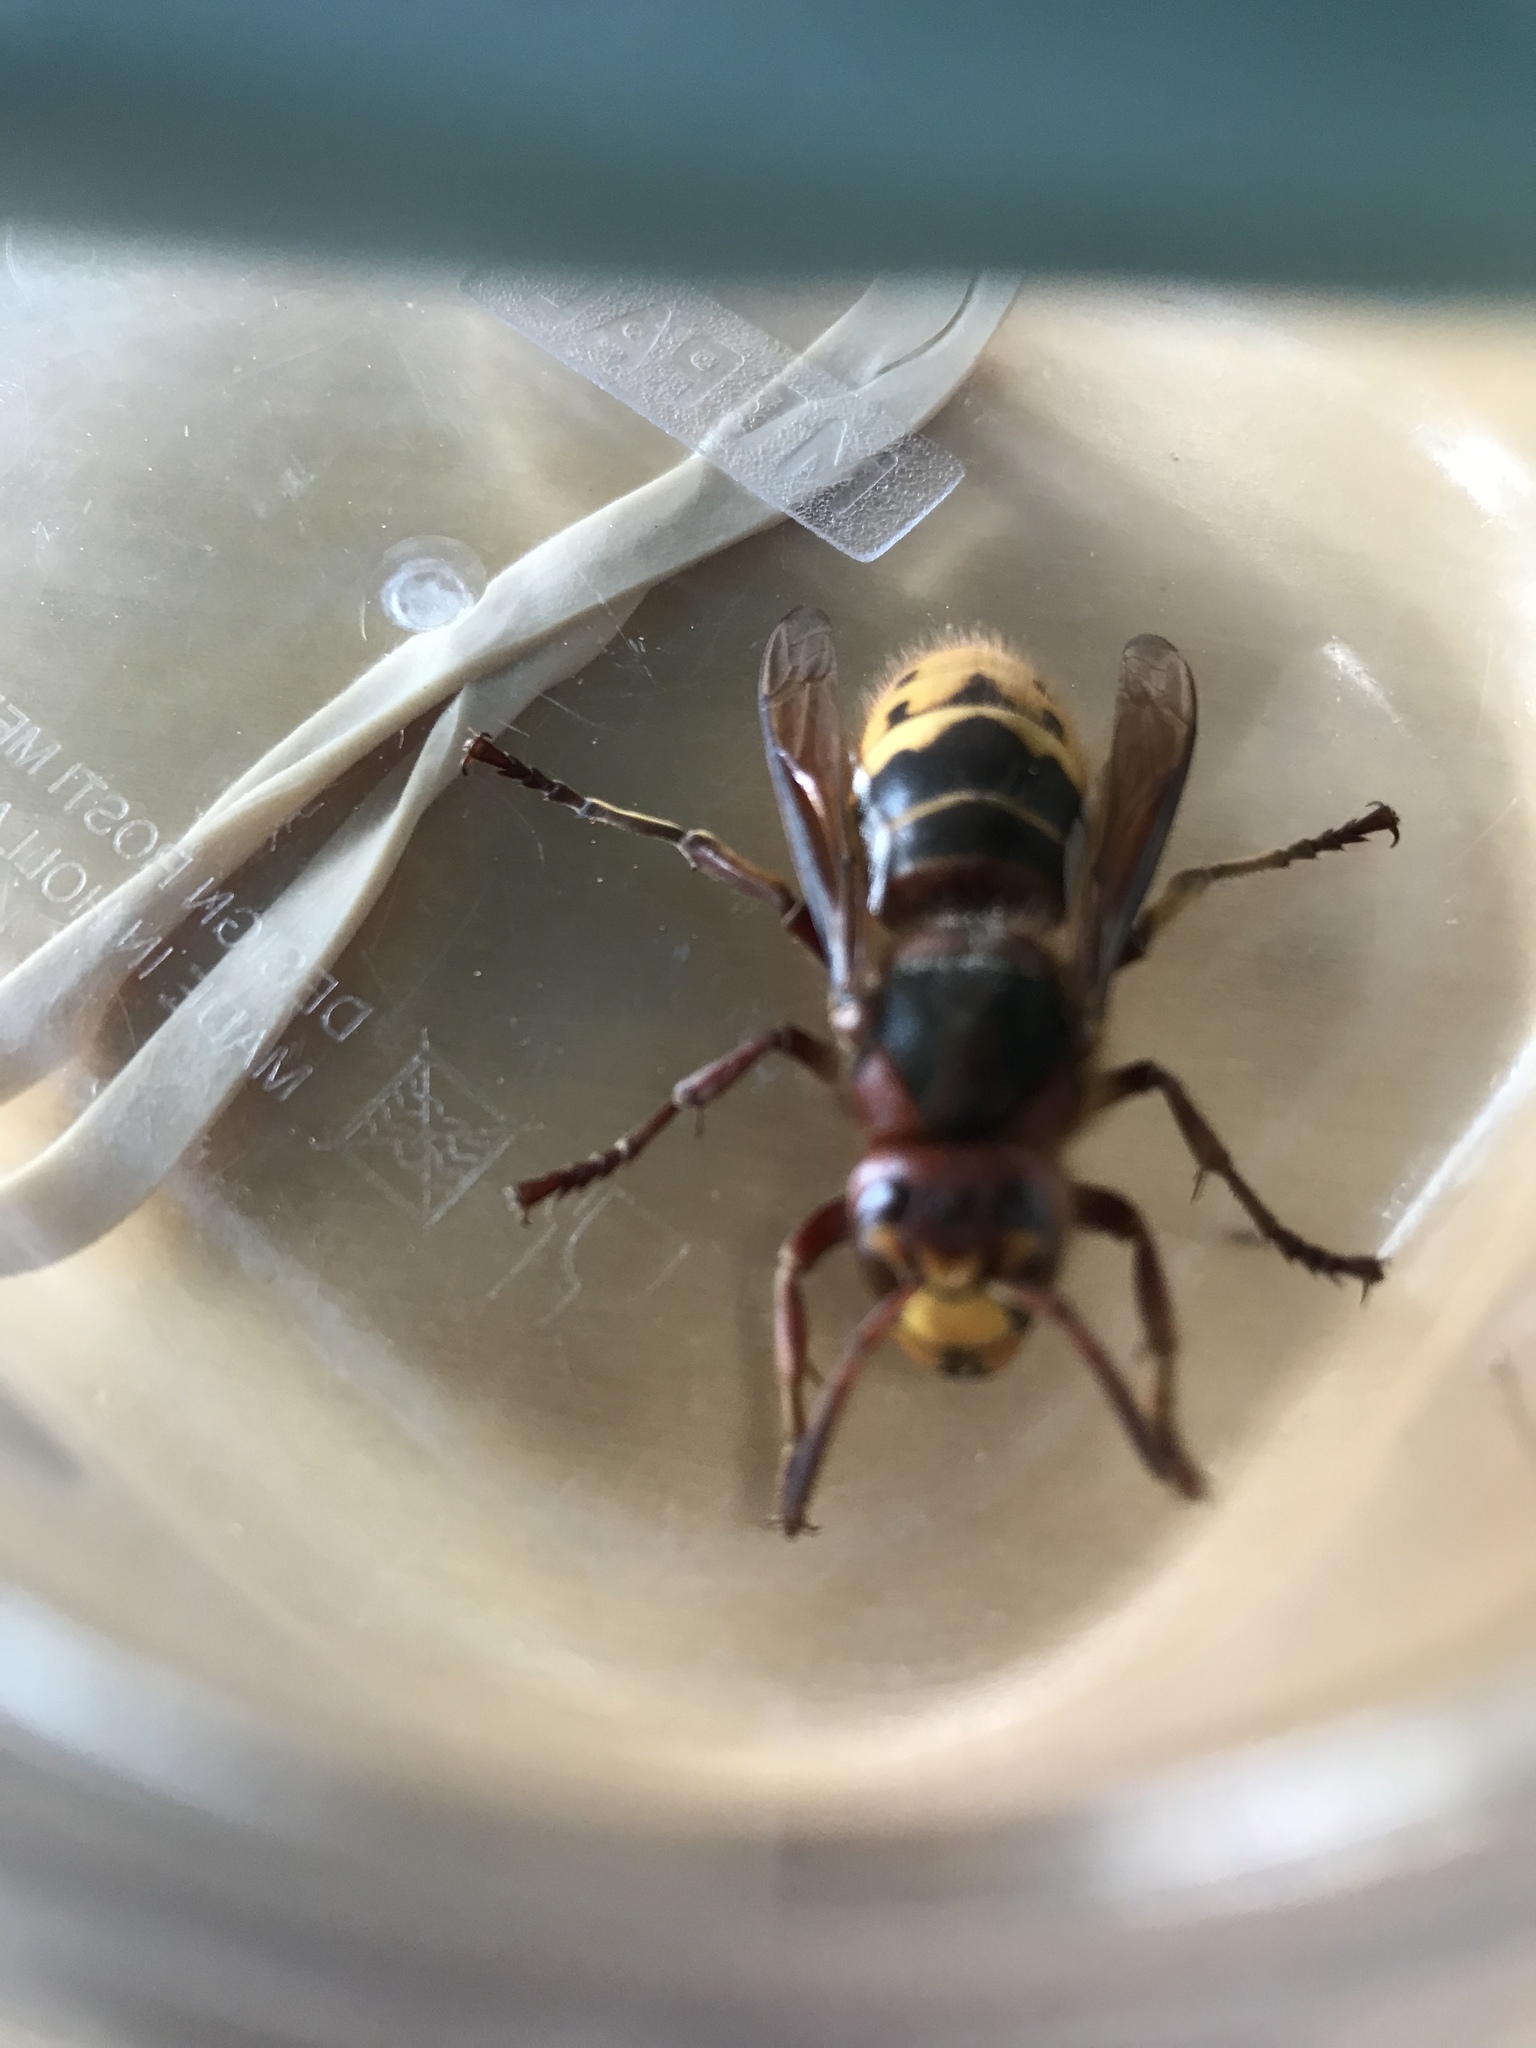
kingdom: Animalia
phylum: Arthropoda
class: Insecta
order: Hymenoptera
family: Vespidae
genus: Vespa
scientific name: Vespa crabro
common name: Hornet
